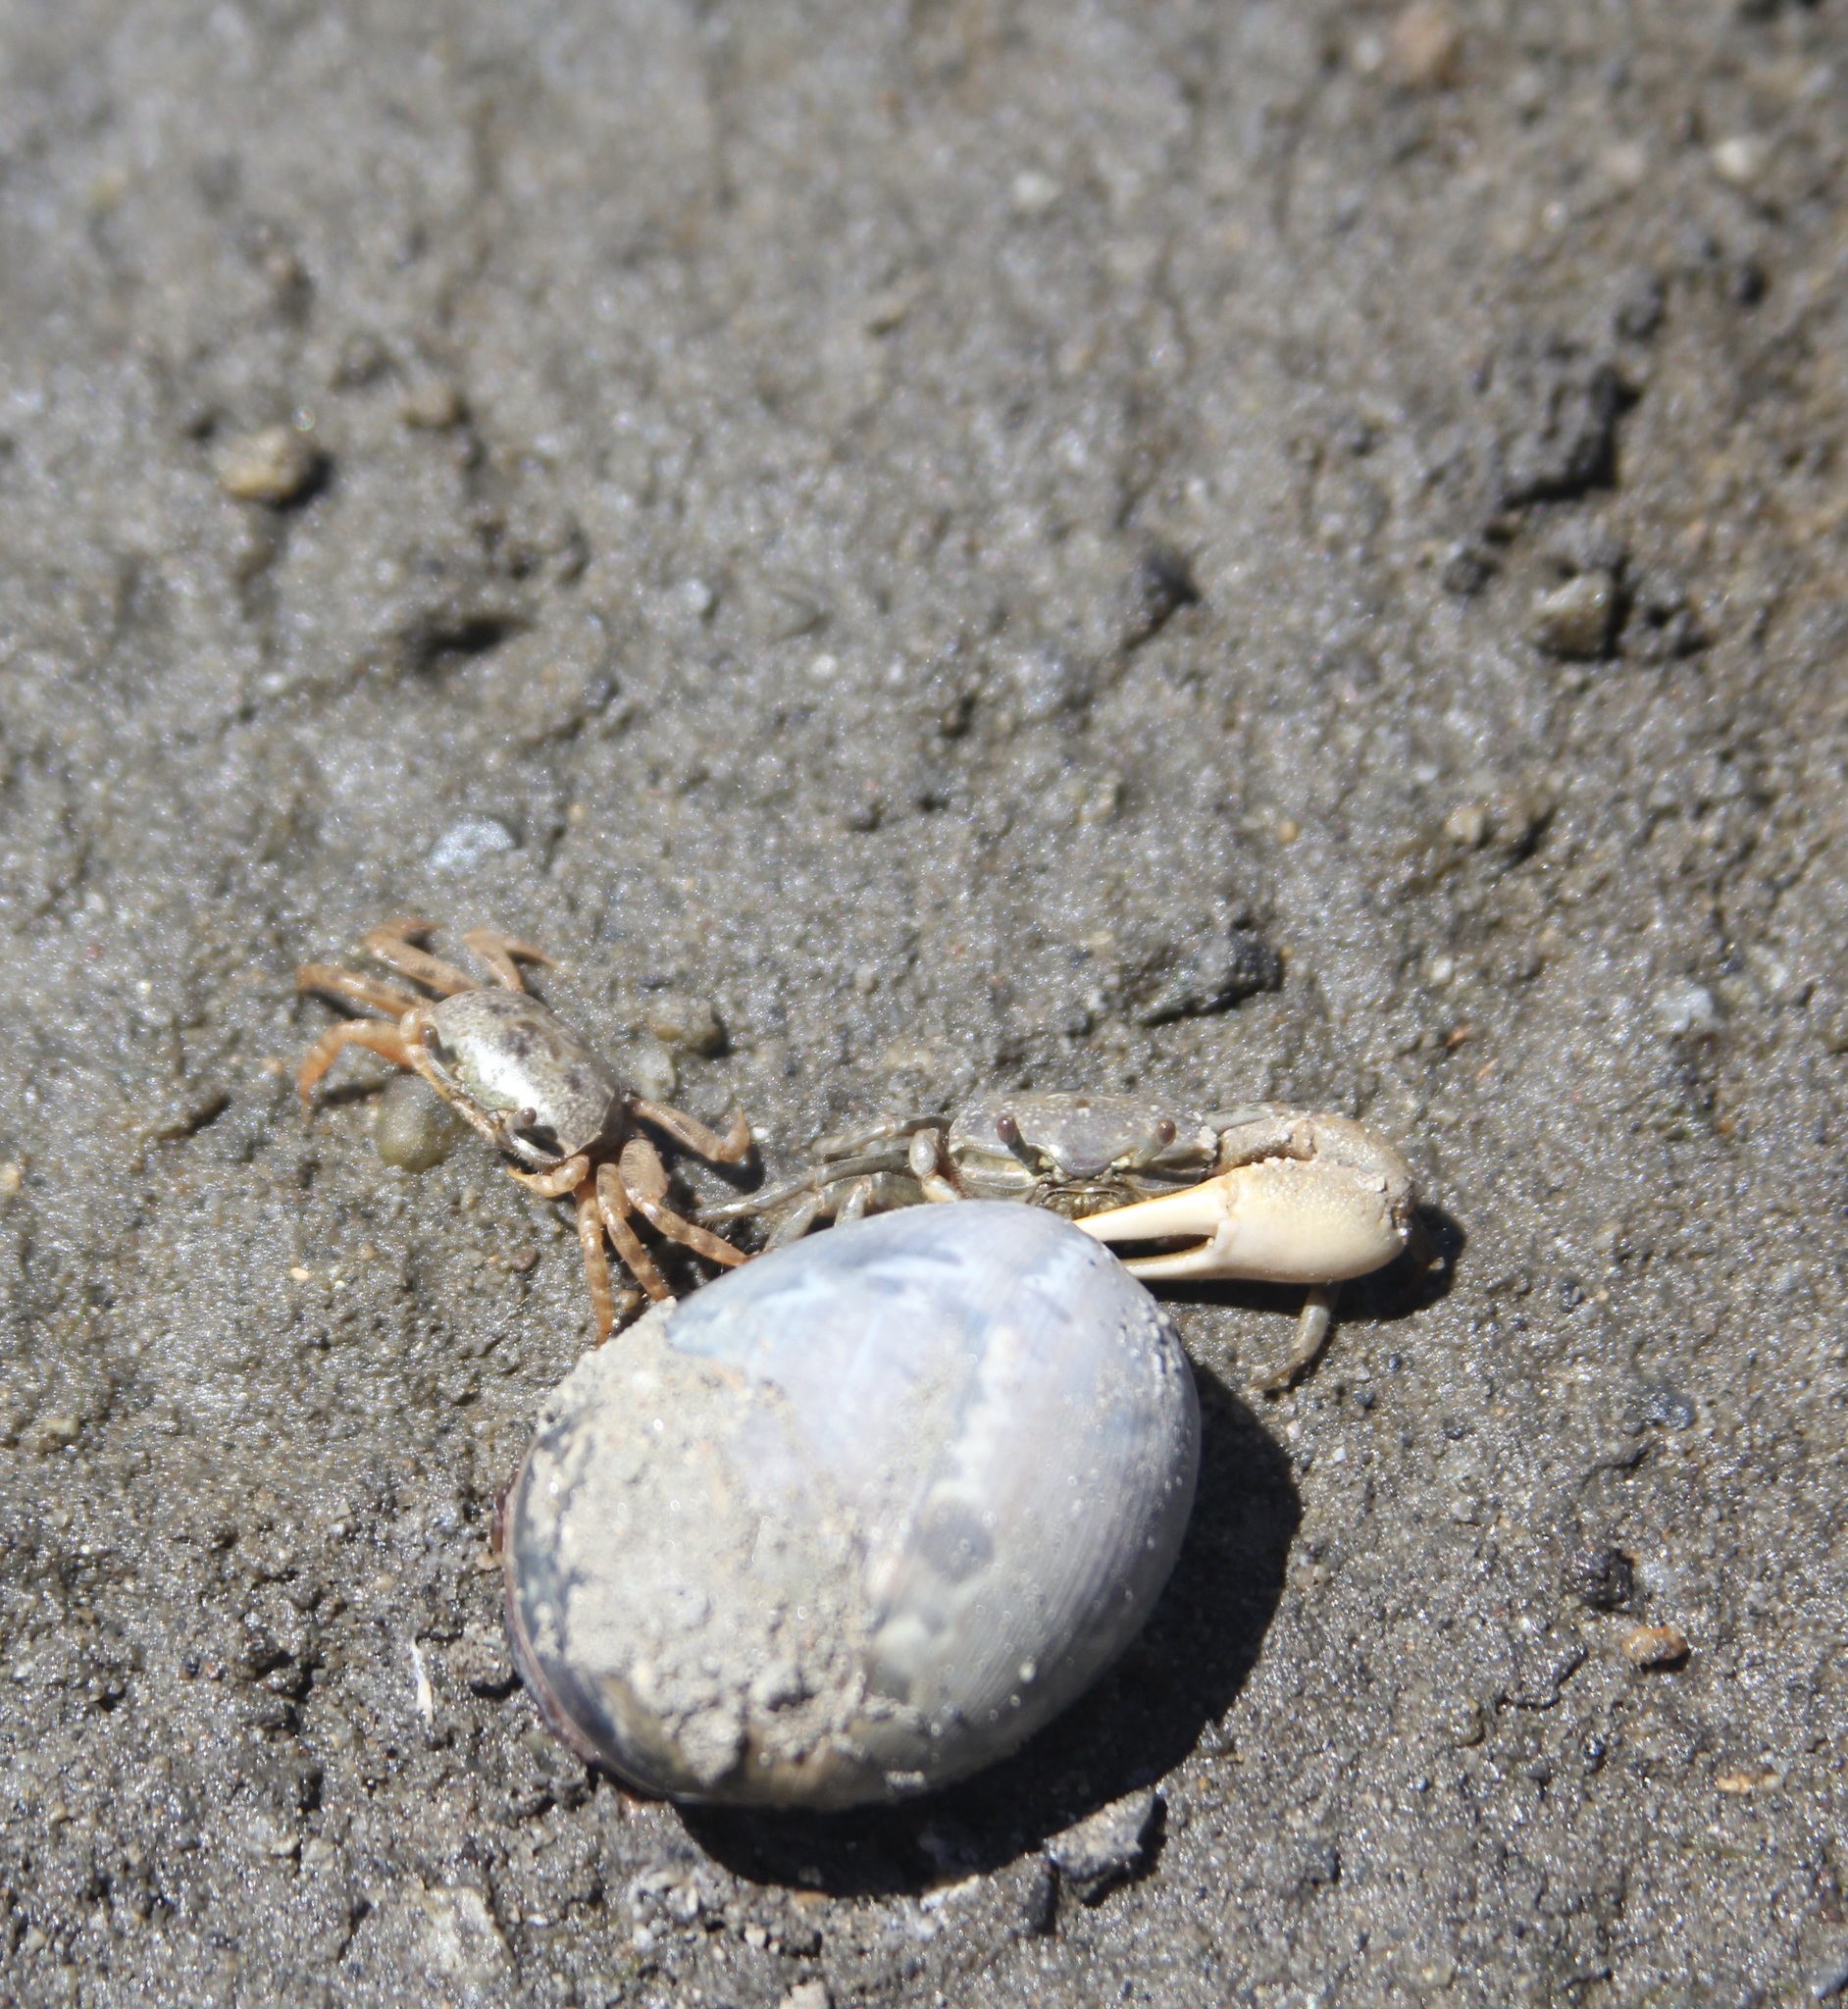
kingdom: Animalia
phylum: Arthropoda
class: Malacostraca
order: Decapoda
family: Ocypodidae
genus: Leptuca
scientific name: Leptuca crenulata
